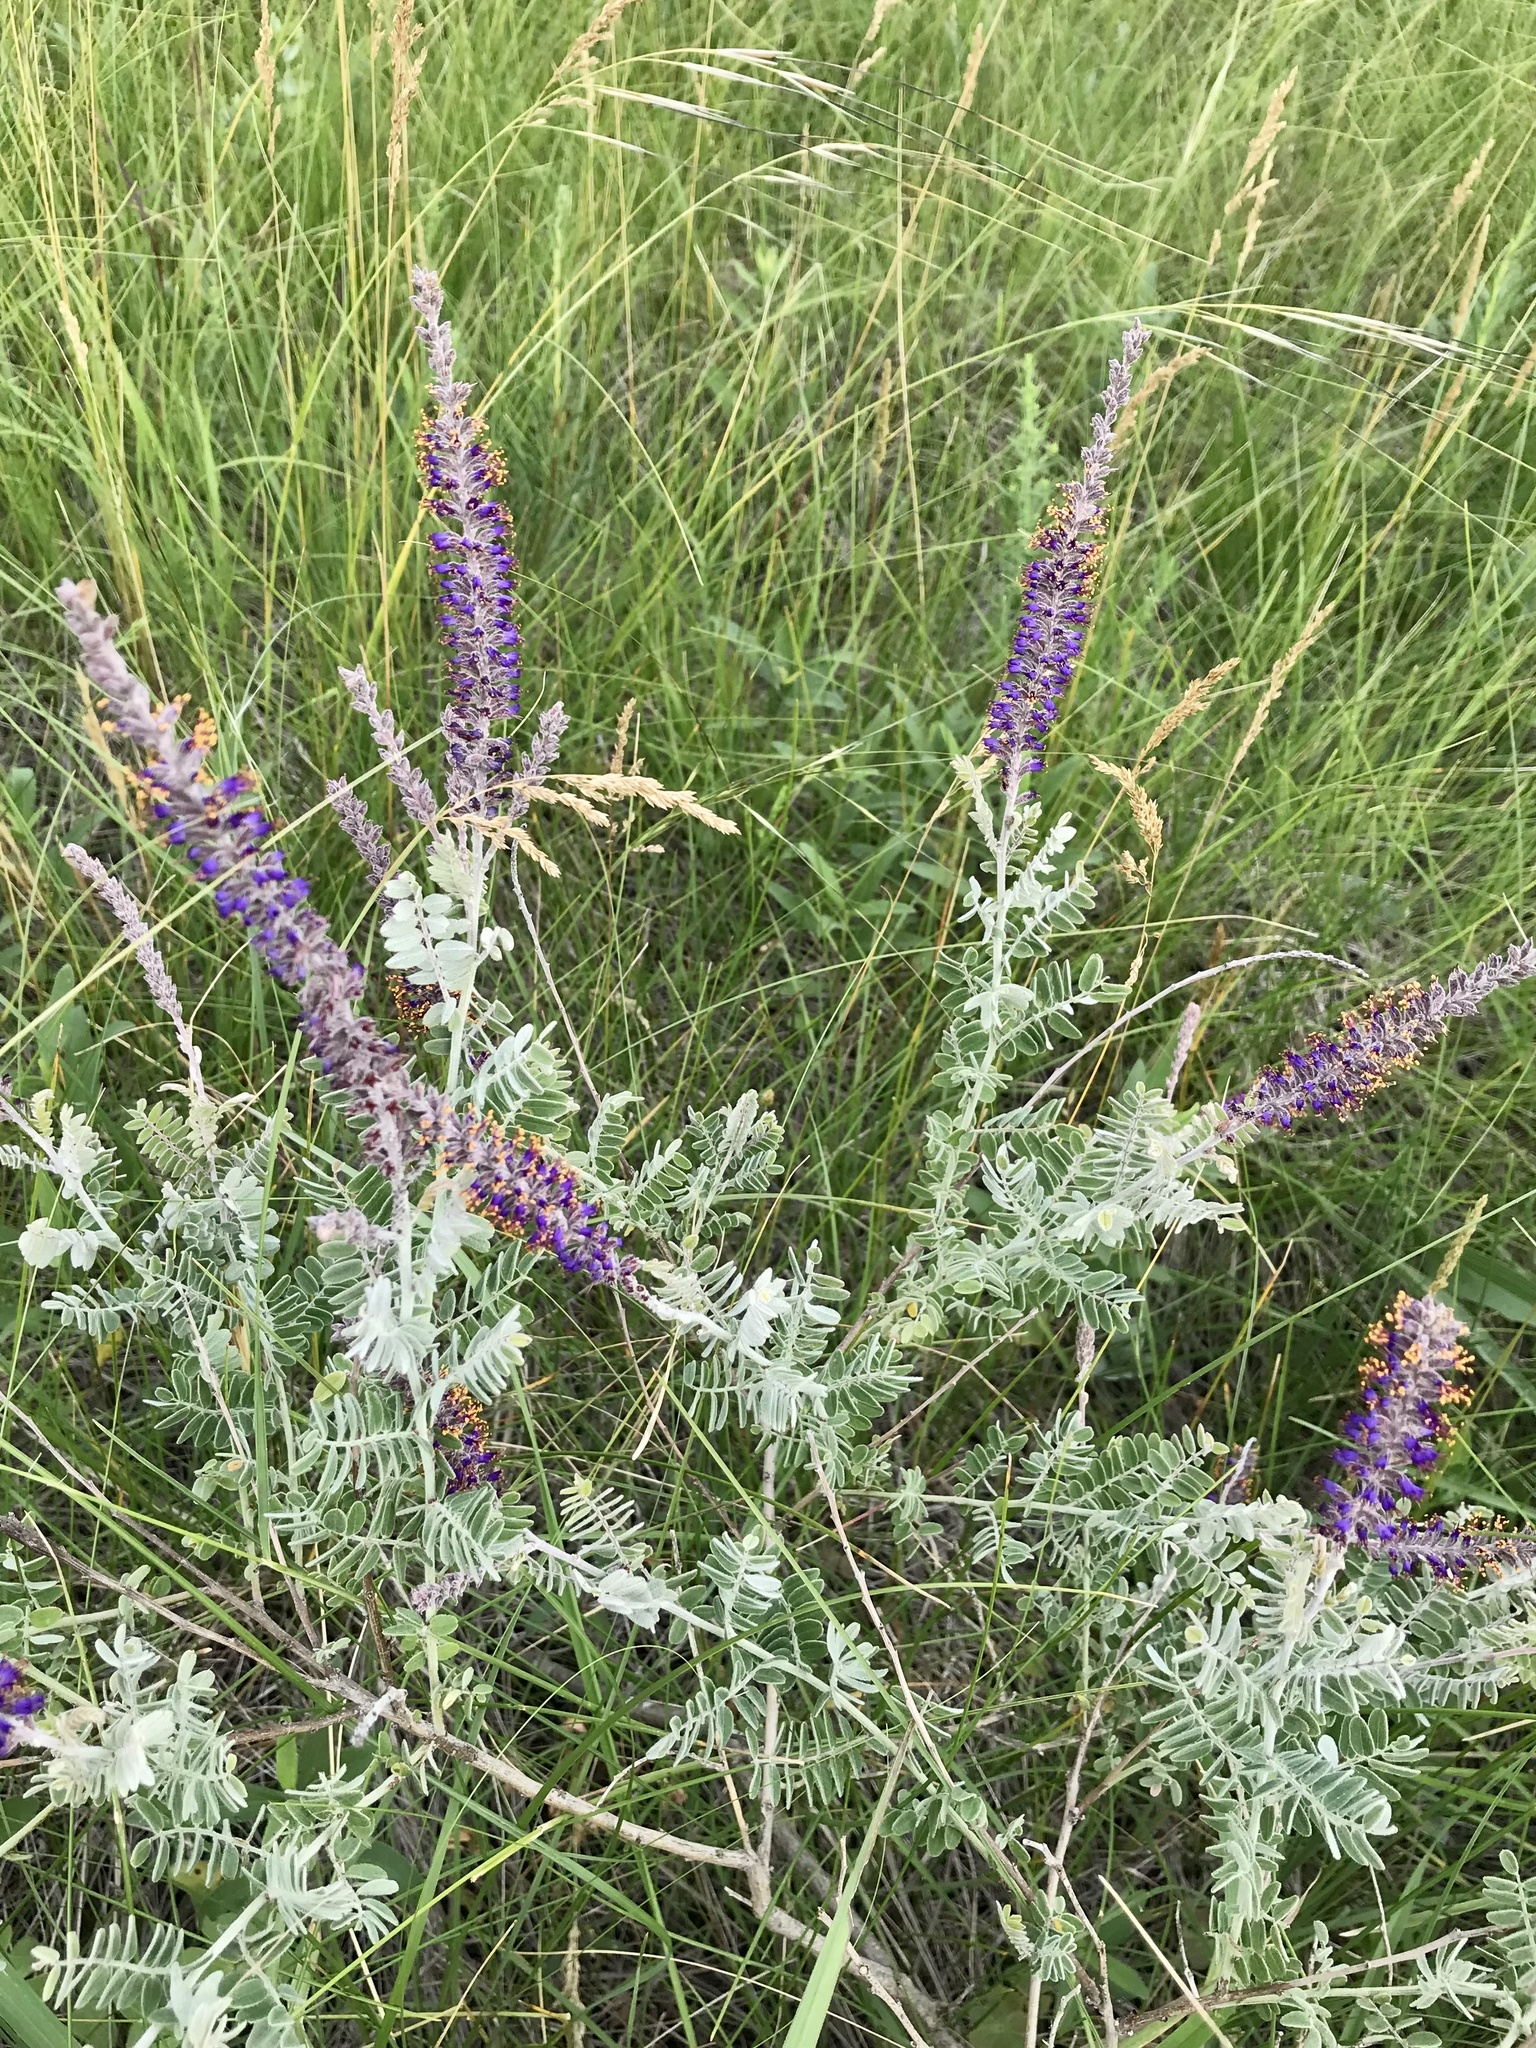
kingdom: Plantae
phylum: Tracheophyta
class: Magnoliopsida
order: Fabales
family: Fabaceae
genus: Amorpha
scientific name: Amorpha canescens
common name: Leadplant
